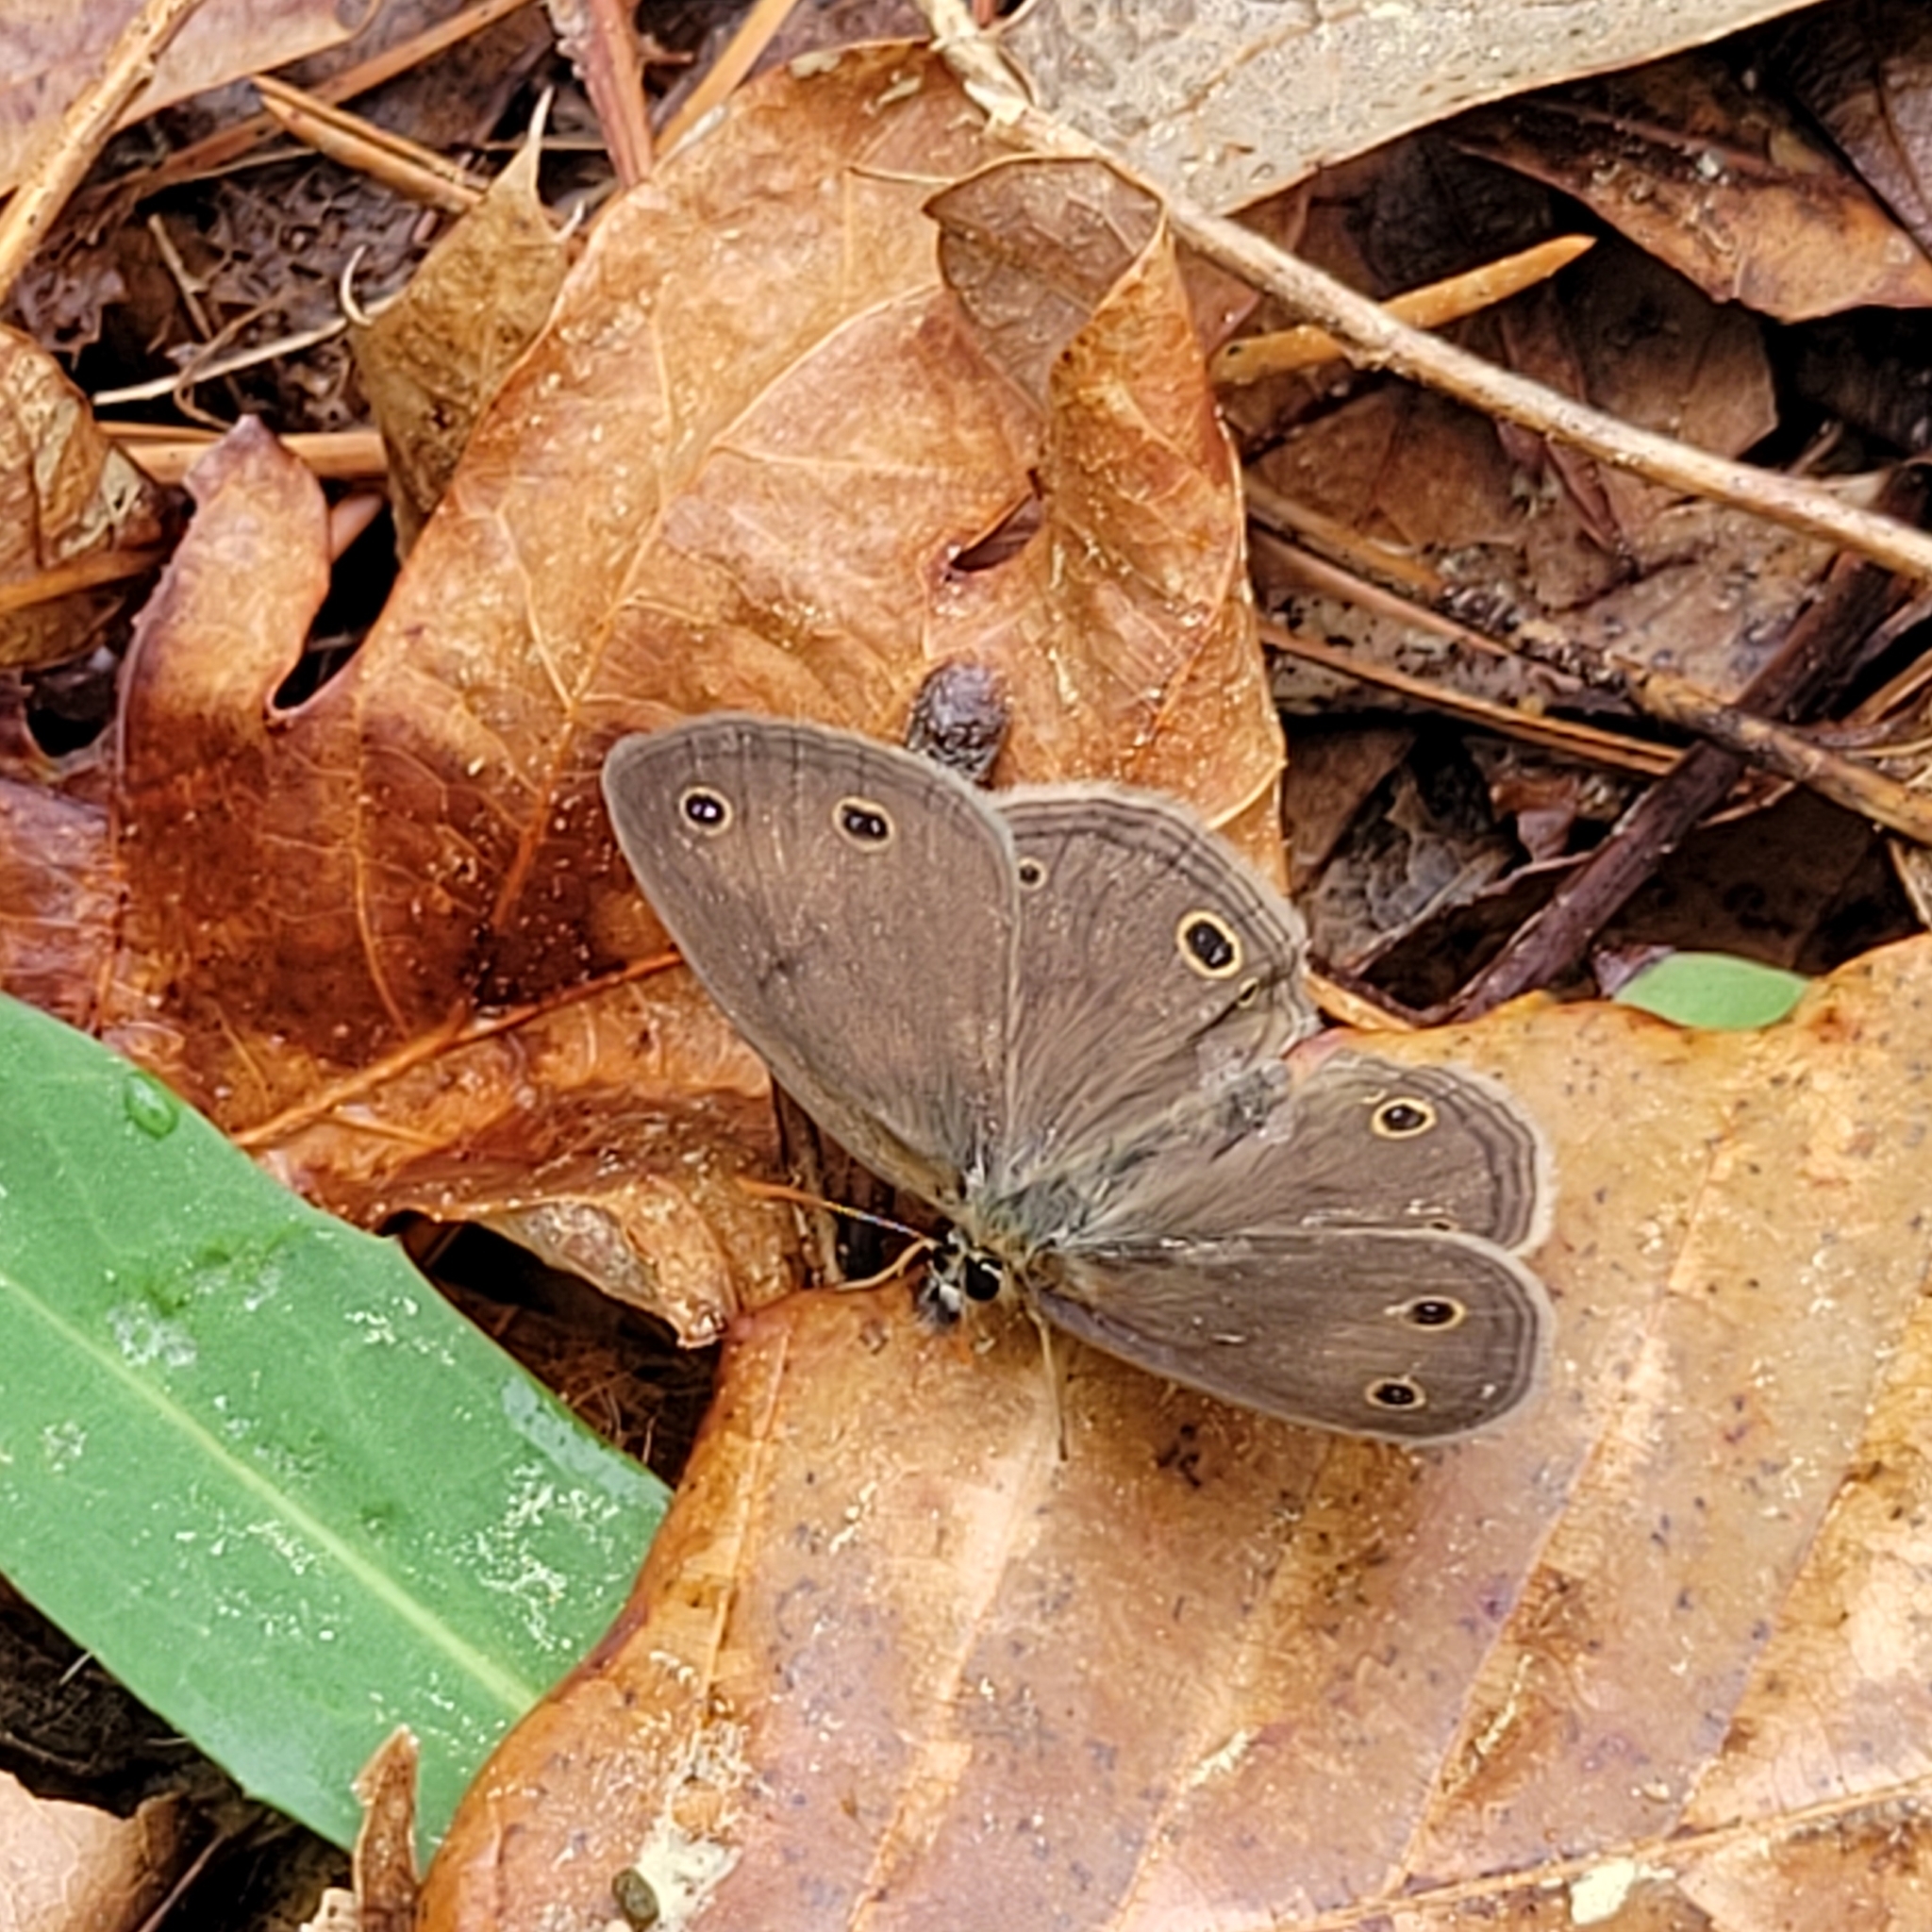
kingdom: Animalia
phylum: Arthropoda
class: Insecta
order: Lepidoptera
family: Nymphalidae
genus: Euptychia
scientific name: Euptychia cymela
